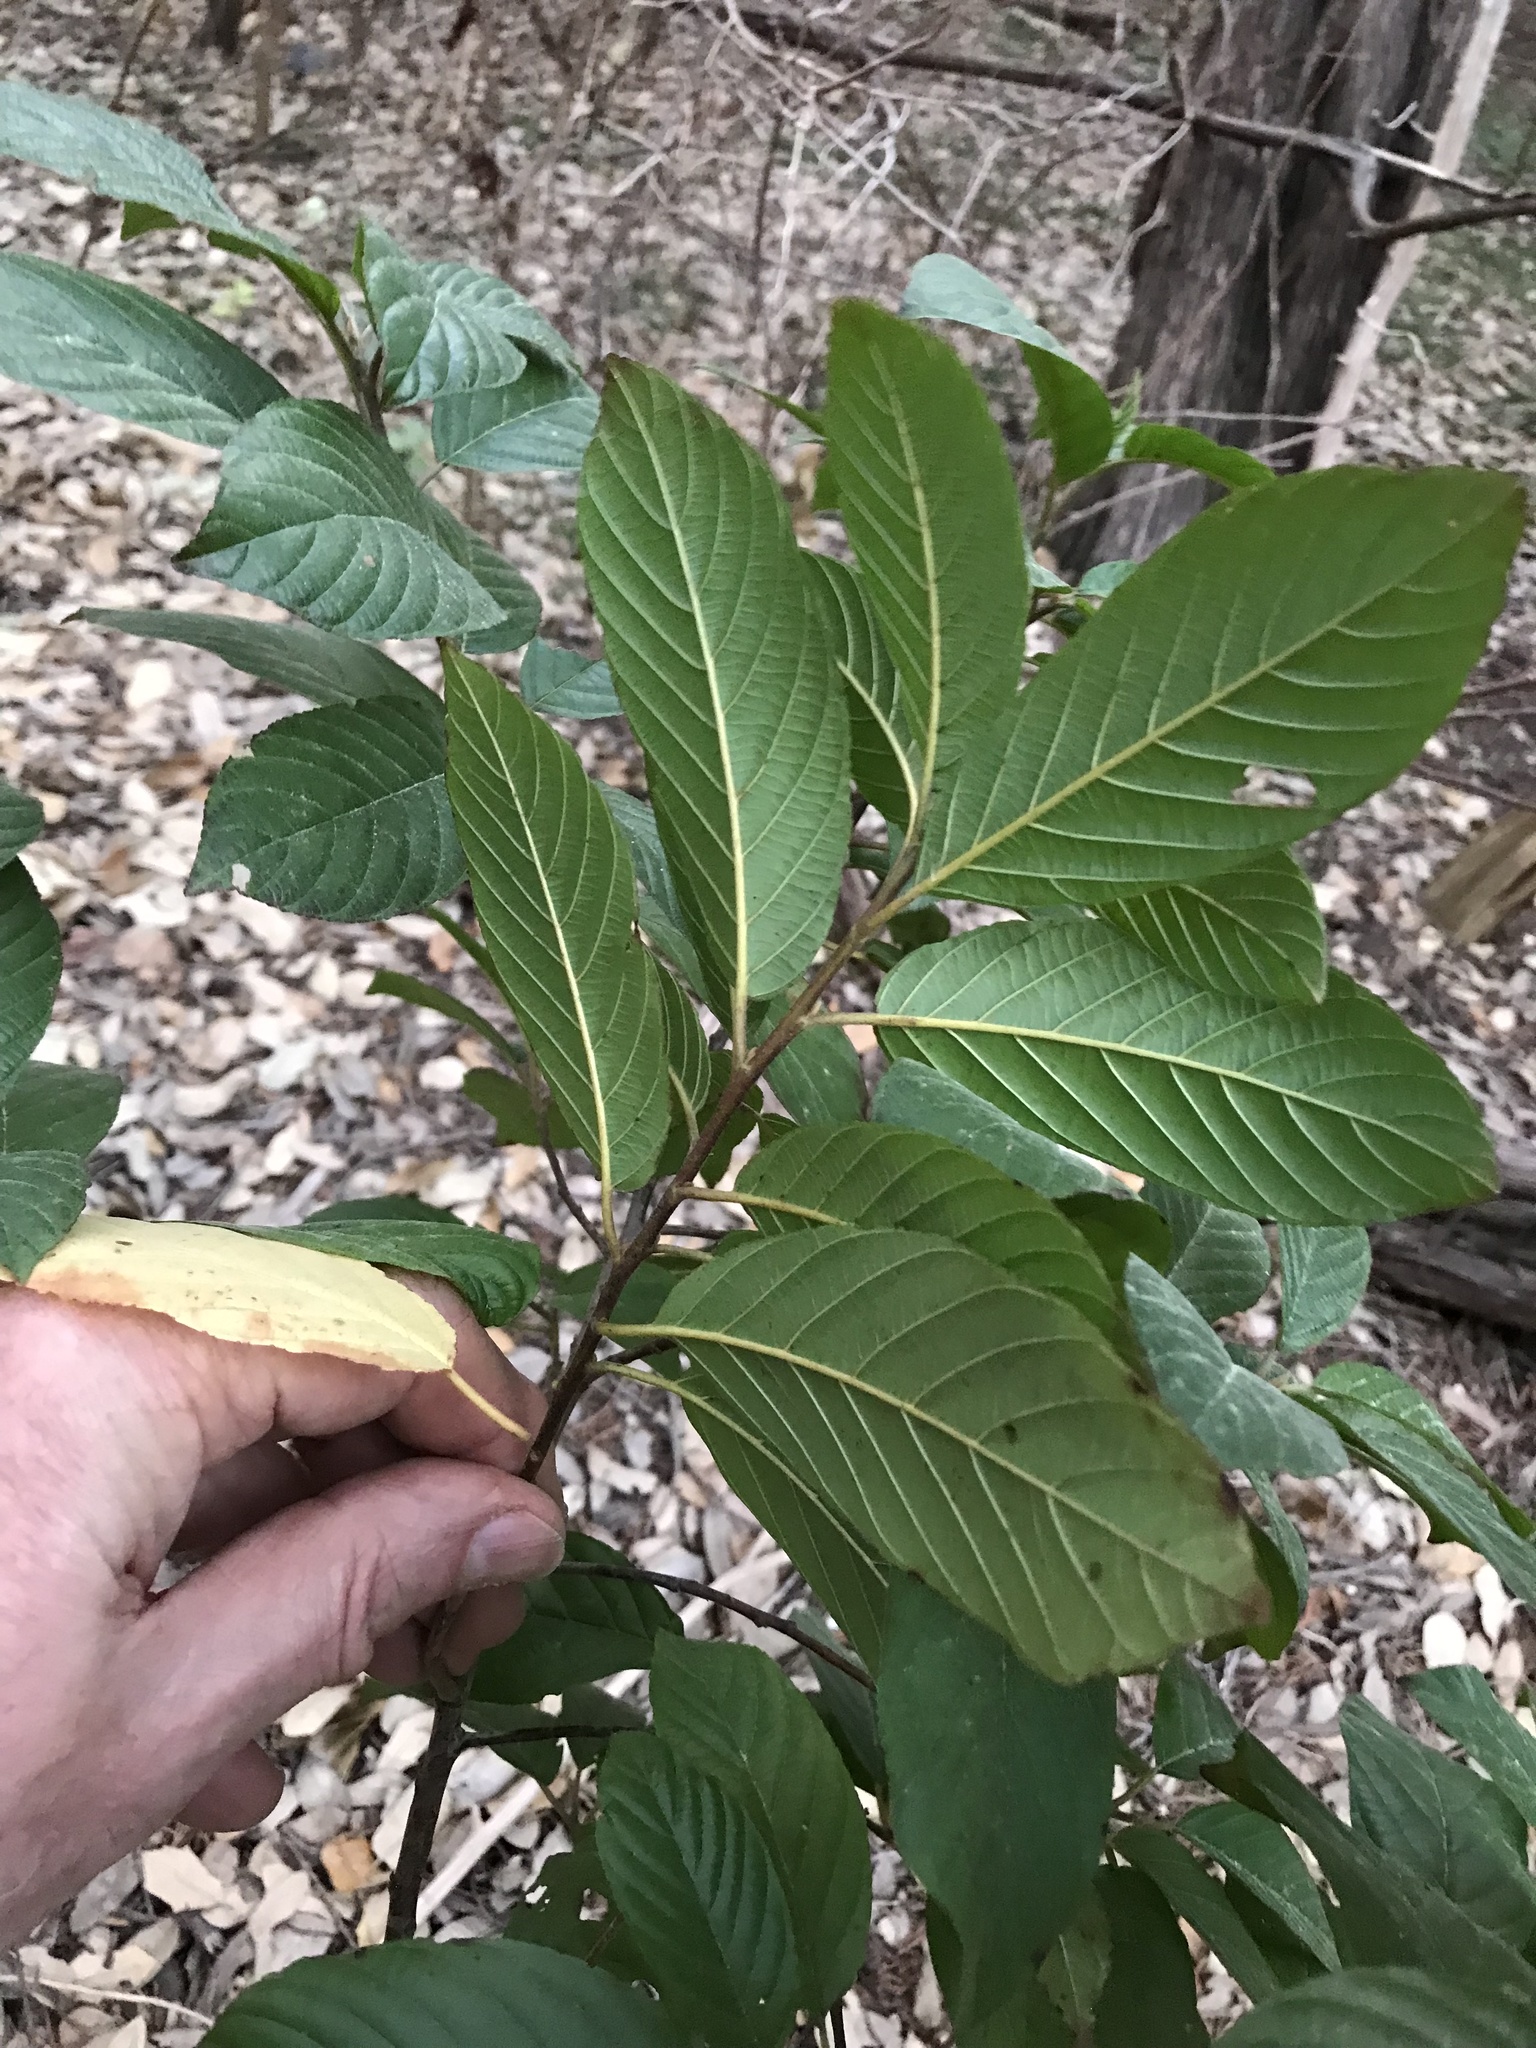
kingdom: Plantae
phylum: Tracheophyta
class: Magnoliopsida
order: Rosales
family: Rhamnaceae
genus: Frangula
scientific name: Frangula caroliniana
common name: Carolina buckthorn
